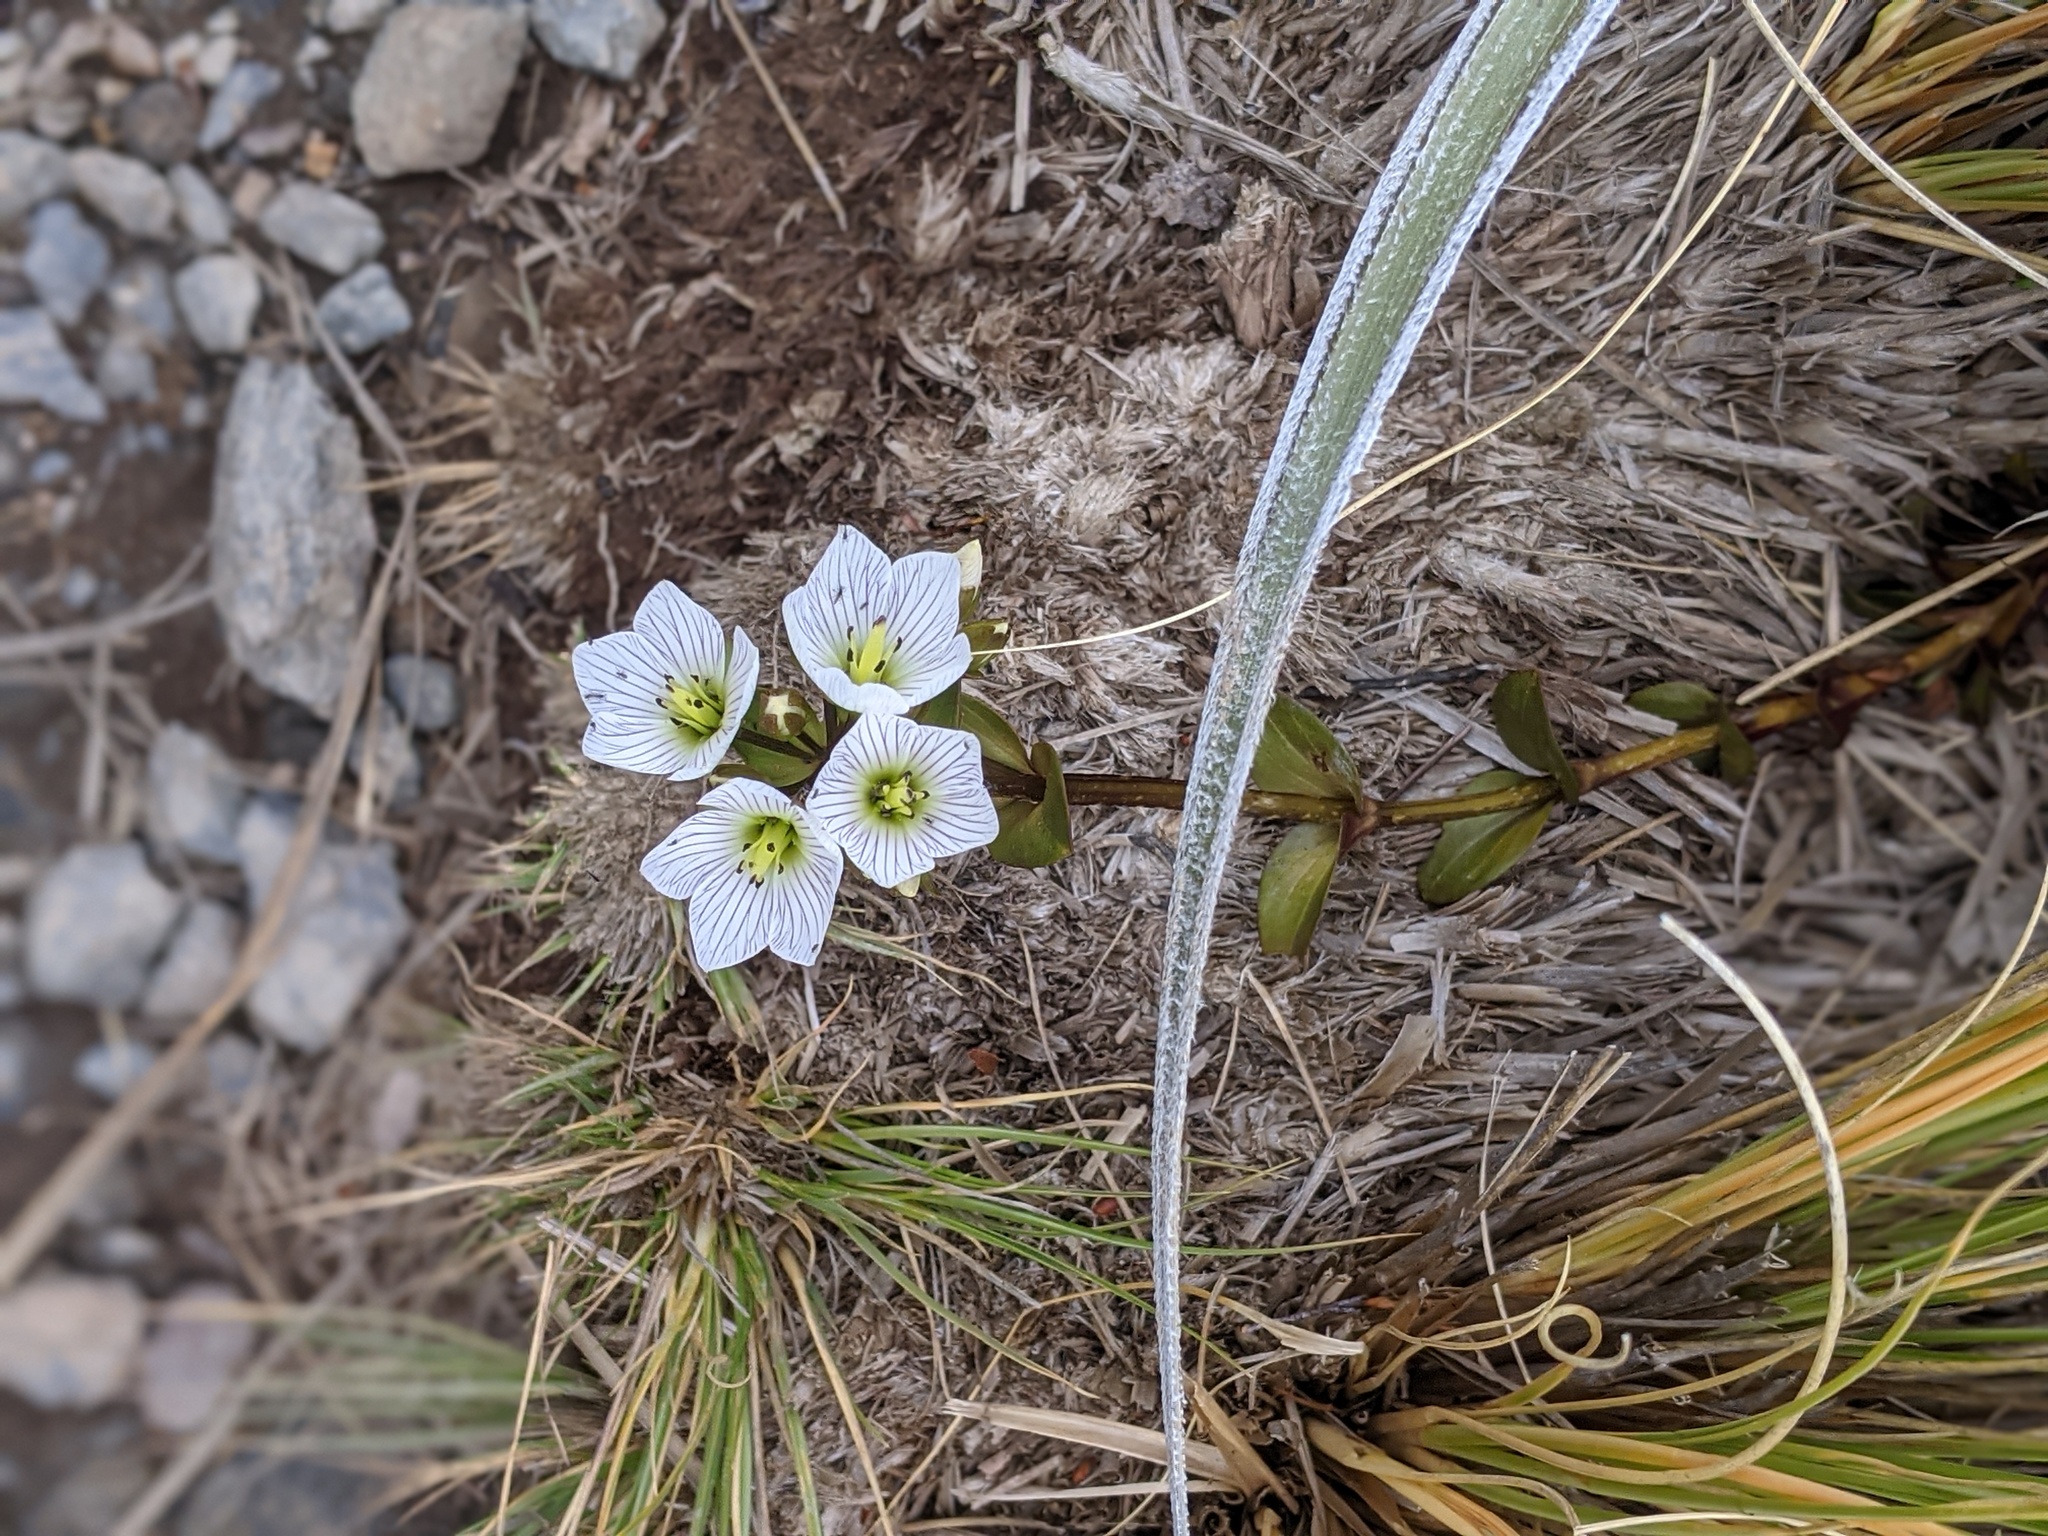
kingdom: Plantae
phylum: Tracheophyta
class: Magnoliopsida
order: Gentianales
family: Gentianaceae
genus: Gentianella
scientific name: Gentianella montana
